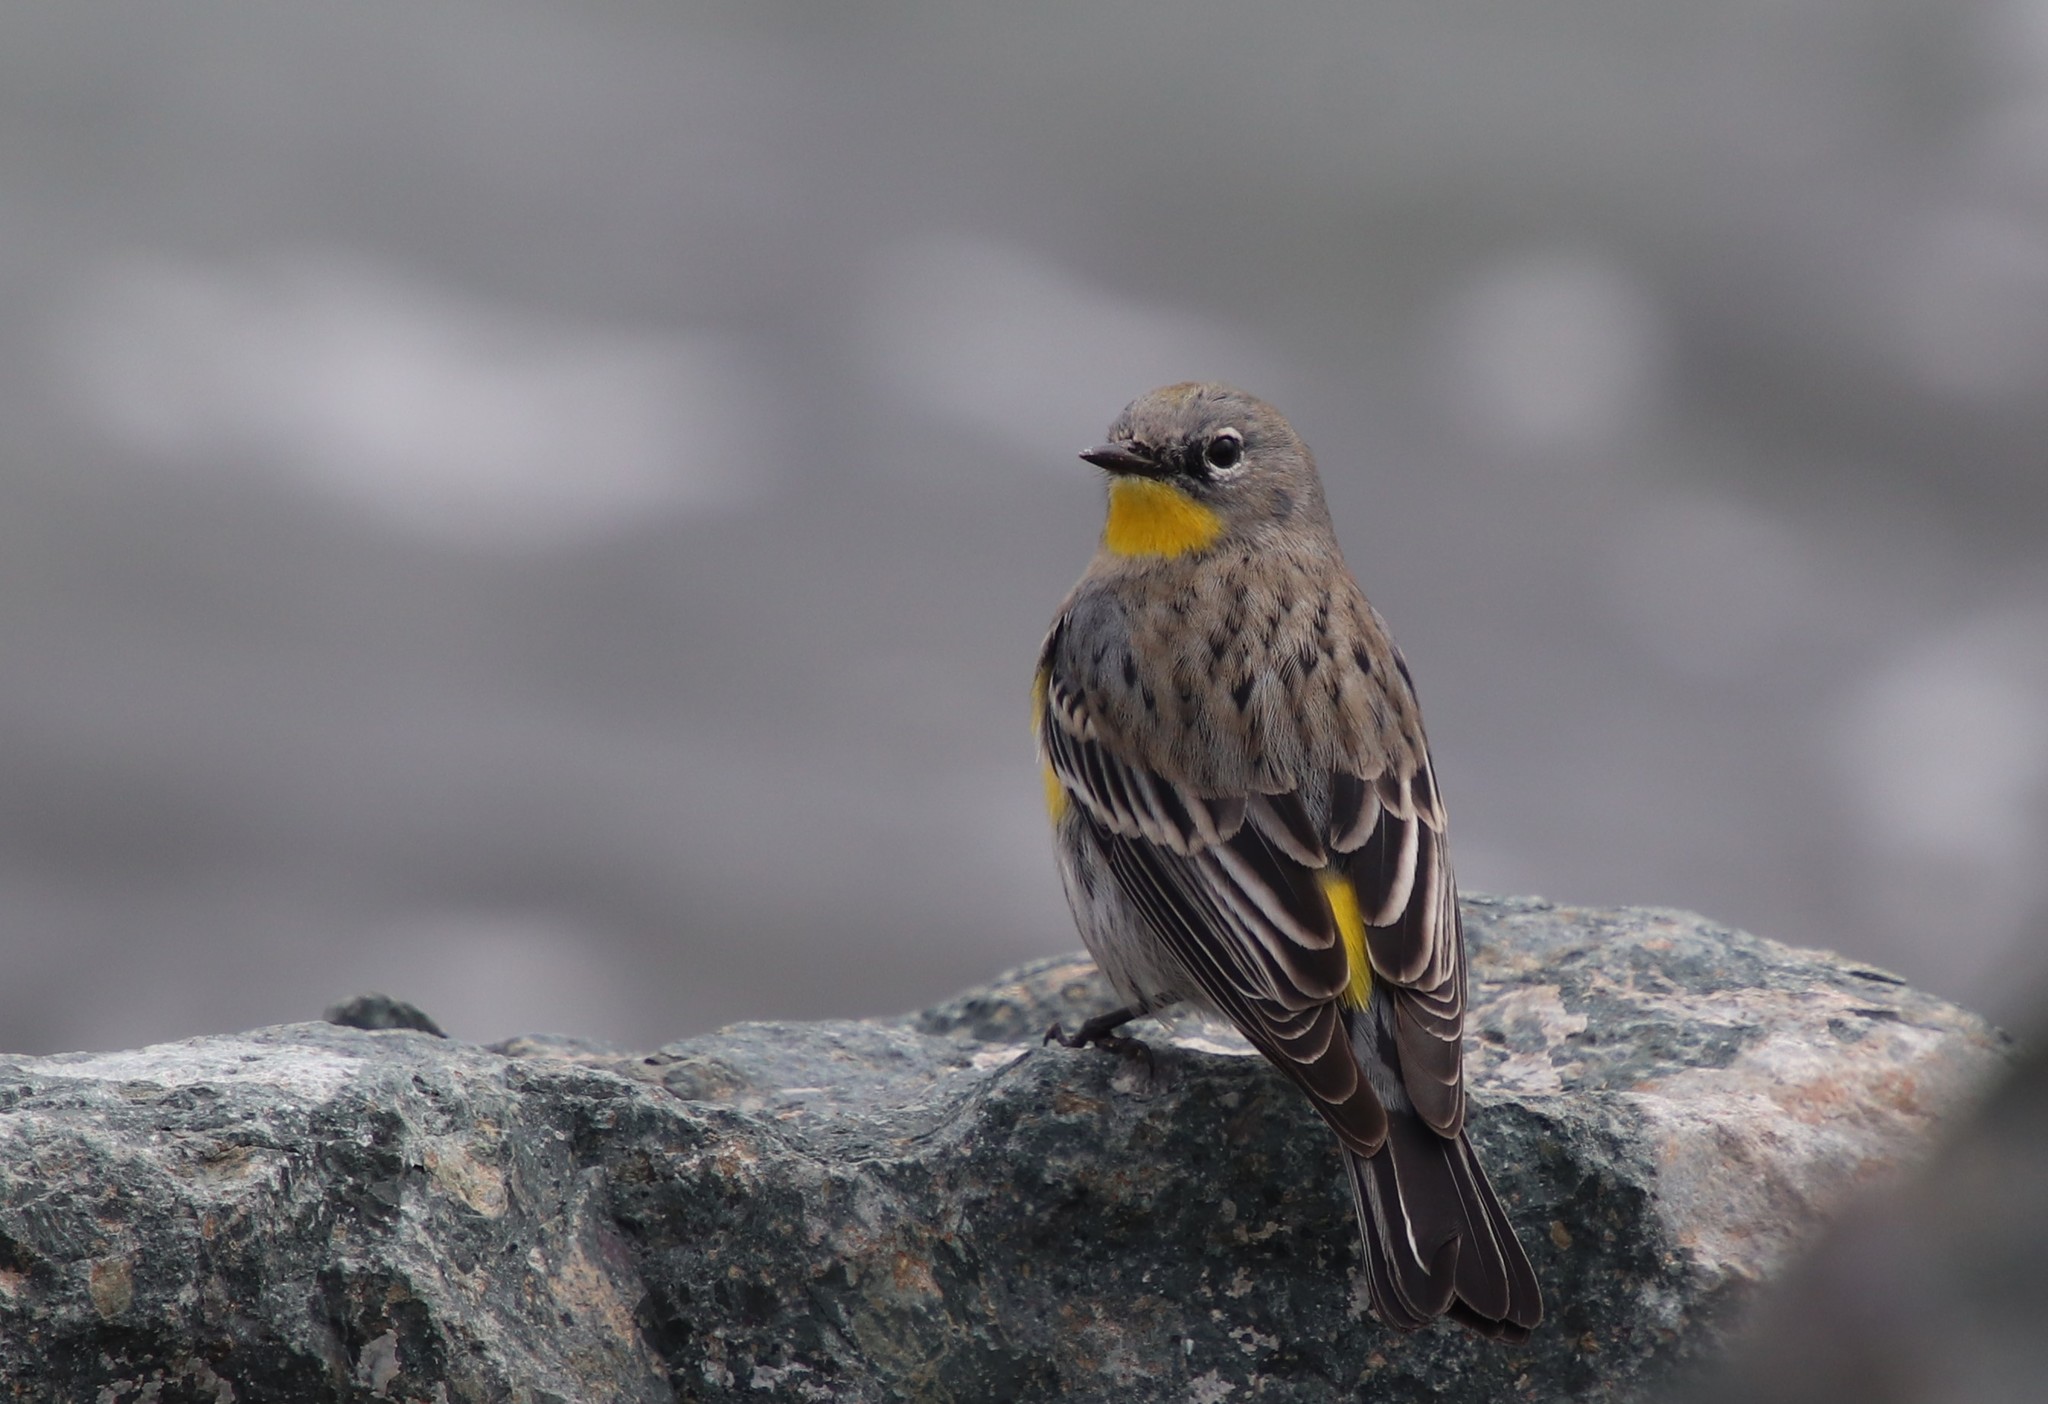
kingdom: Animalia
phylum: Chordata
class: Aves
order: Passeriformes
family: Parulidae
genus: Setophaga
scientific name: Setophaga auduboni
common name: Audubon's warbler
